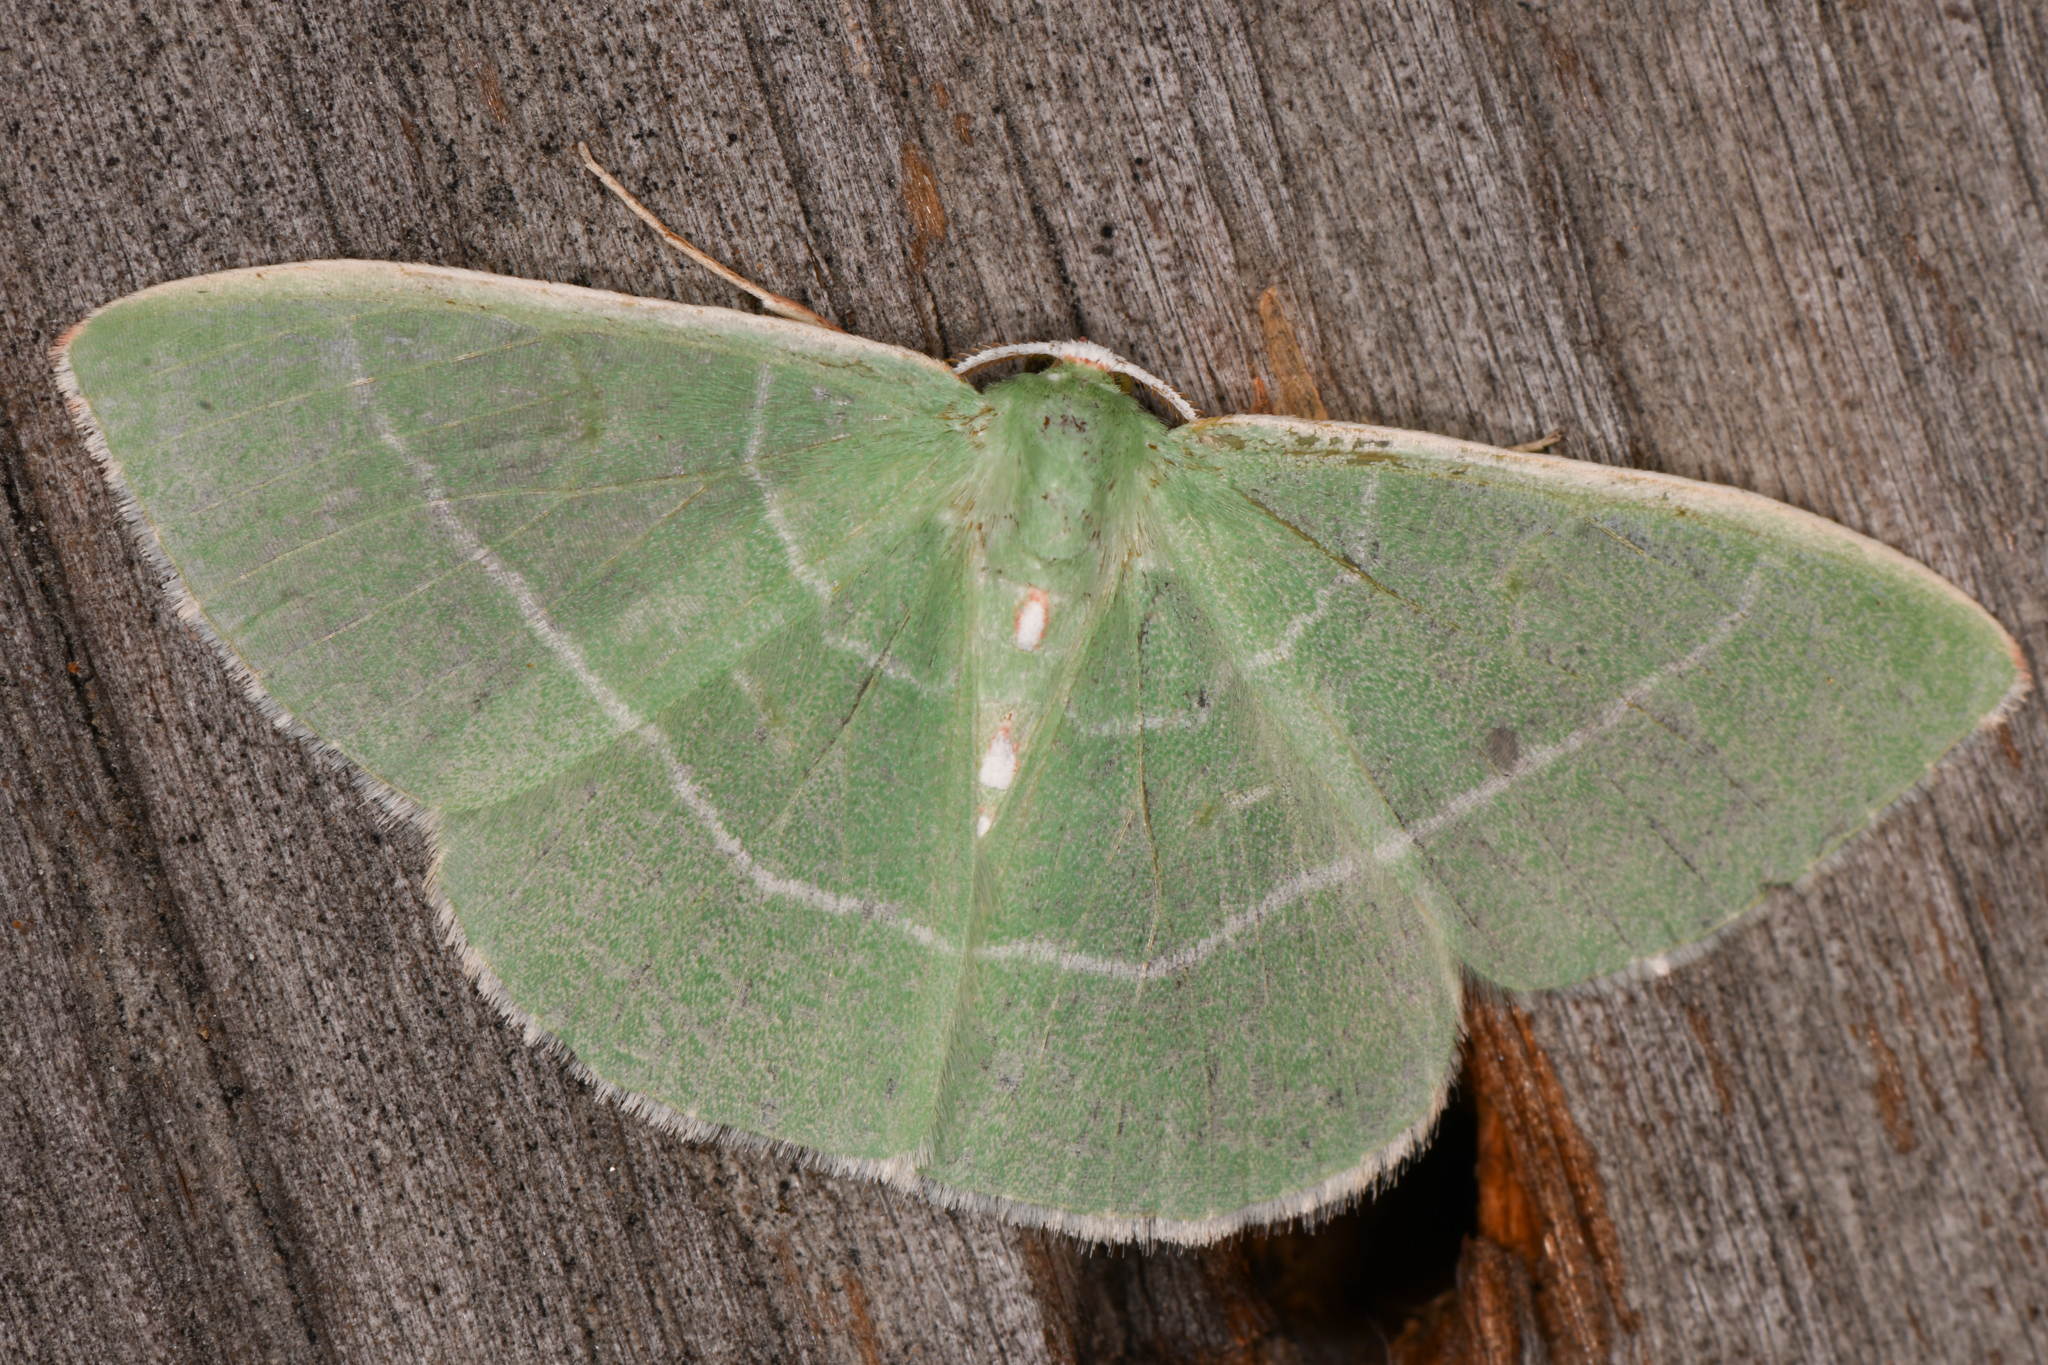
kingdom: Animalia
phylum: Arthropoda
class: Insecta
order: Lepidoptera
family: Geometridae
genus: Nemoria
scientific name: Nemoria darwiniata
